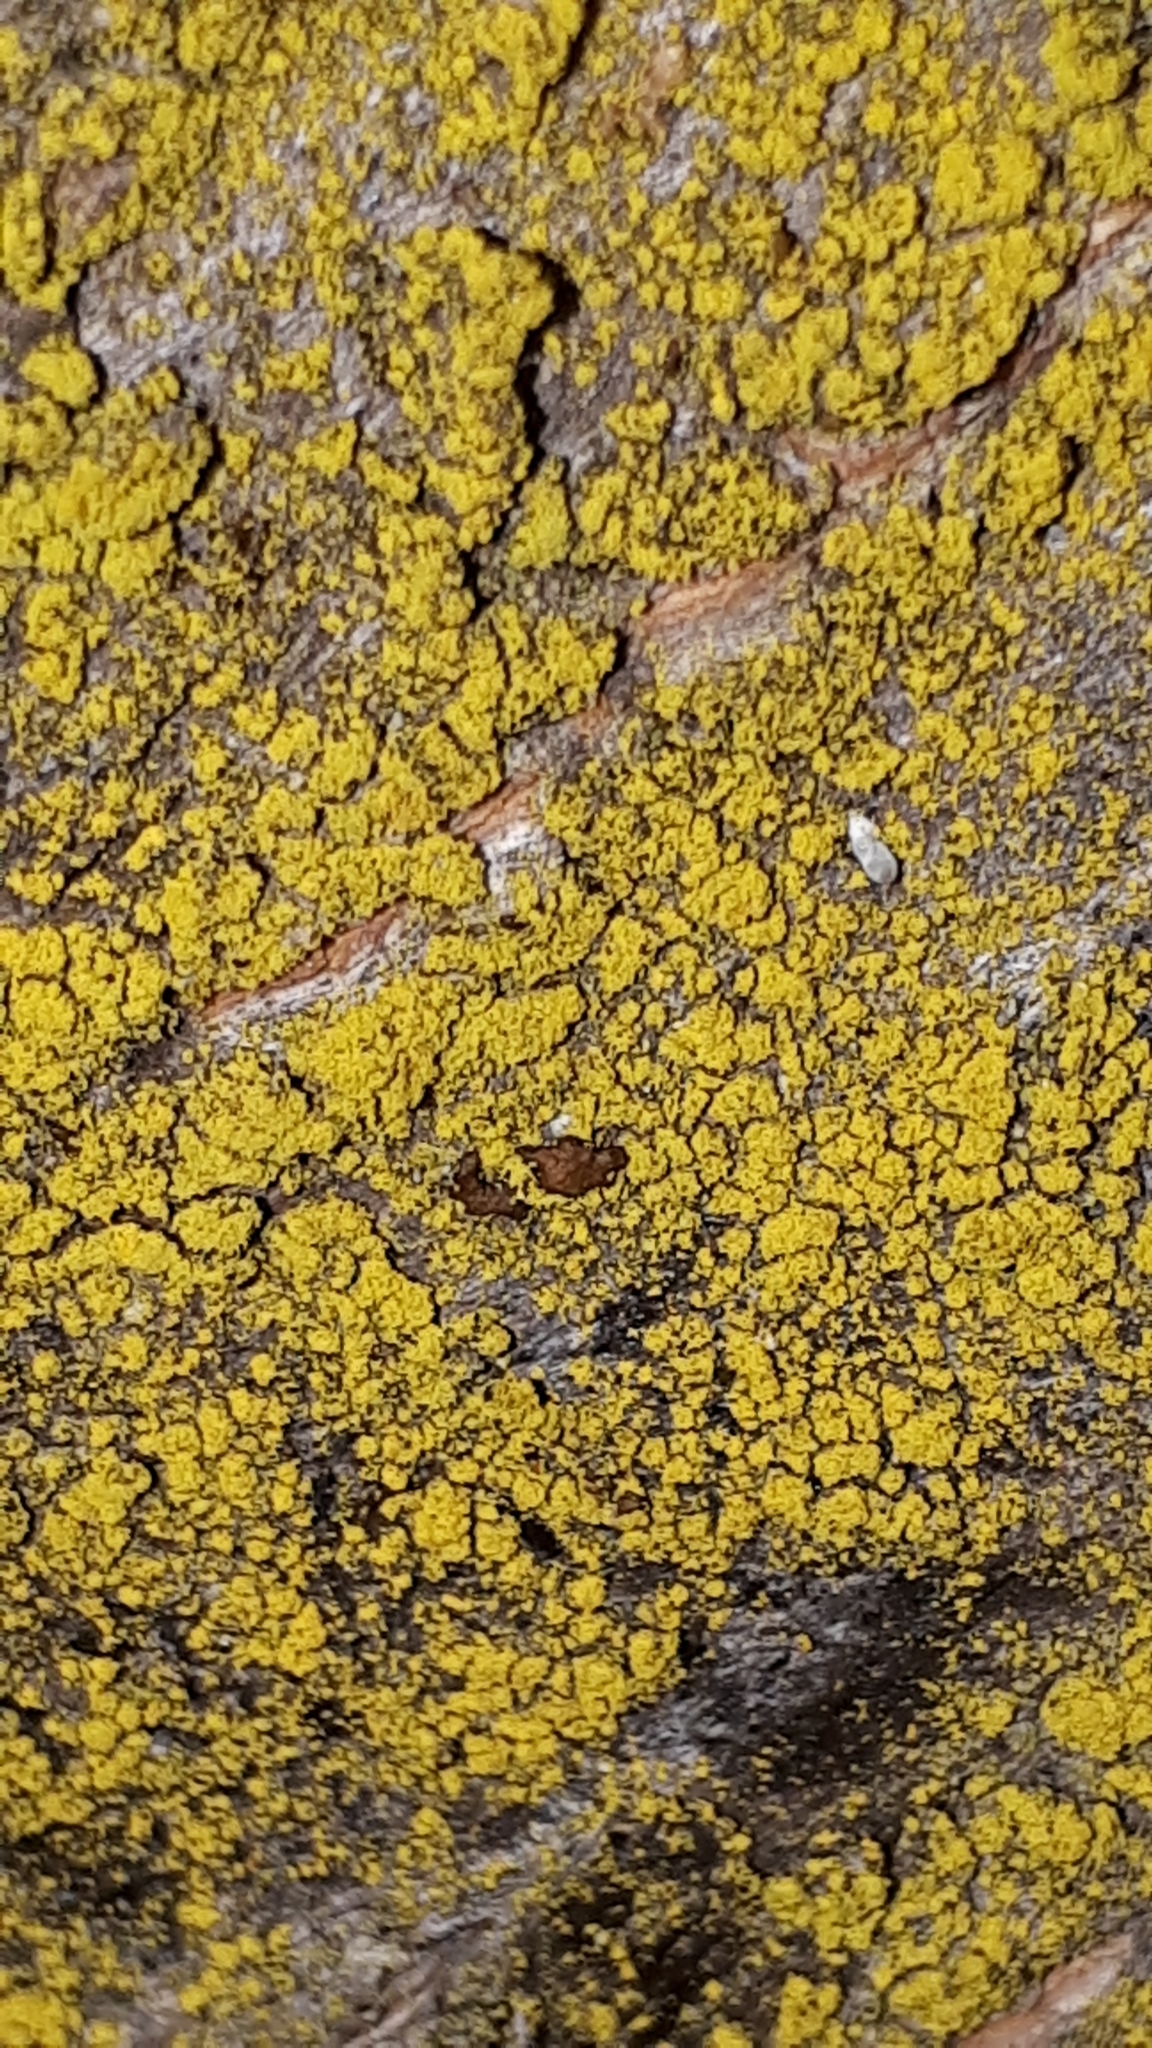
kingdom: Fungi
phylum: Ascomycota
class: Candelariomycetes
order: Candelariales
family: Candelariaceae
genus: Candelariella
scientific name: Candelariella xanthostigma
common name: Granular goldspeck lichen
